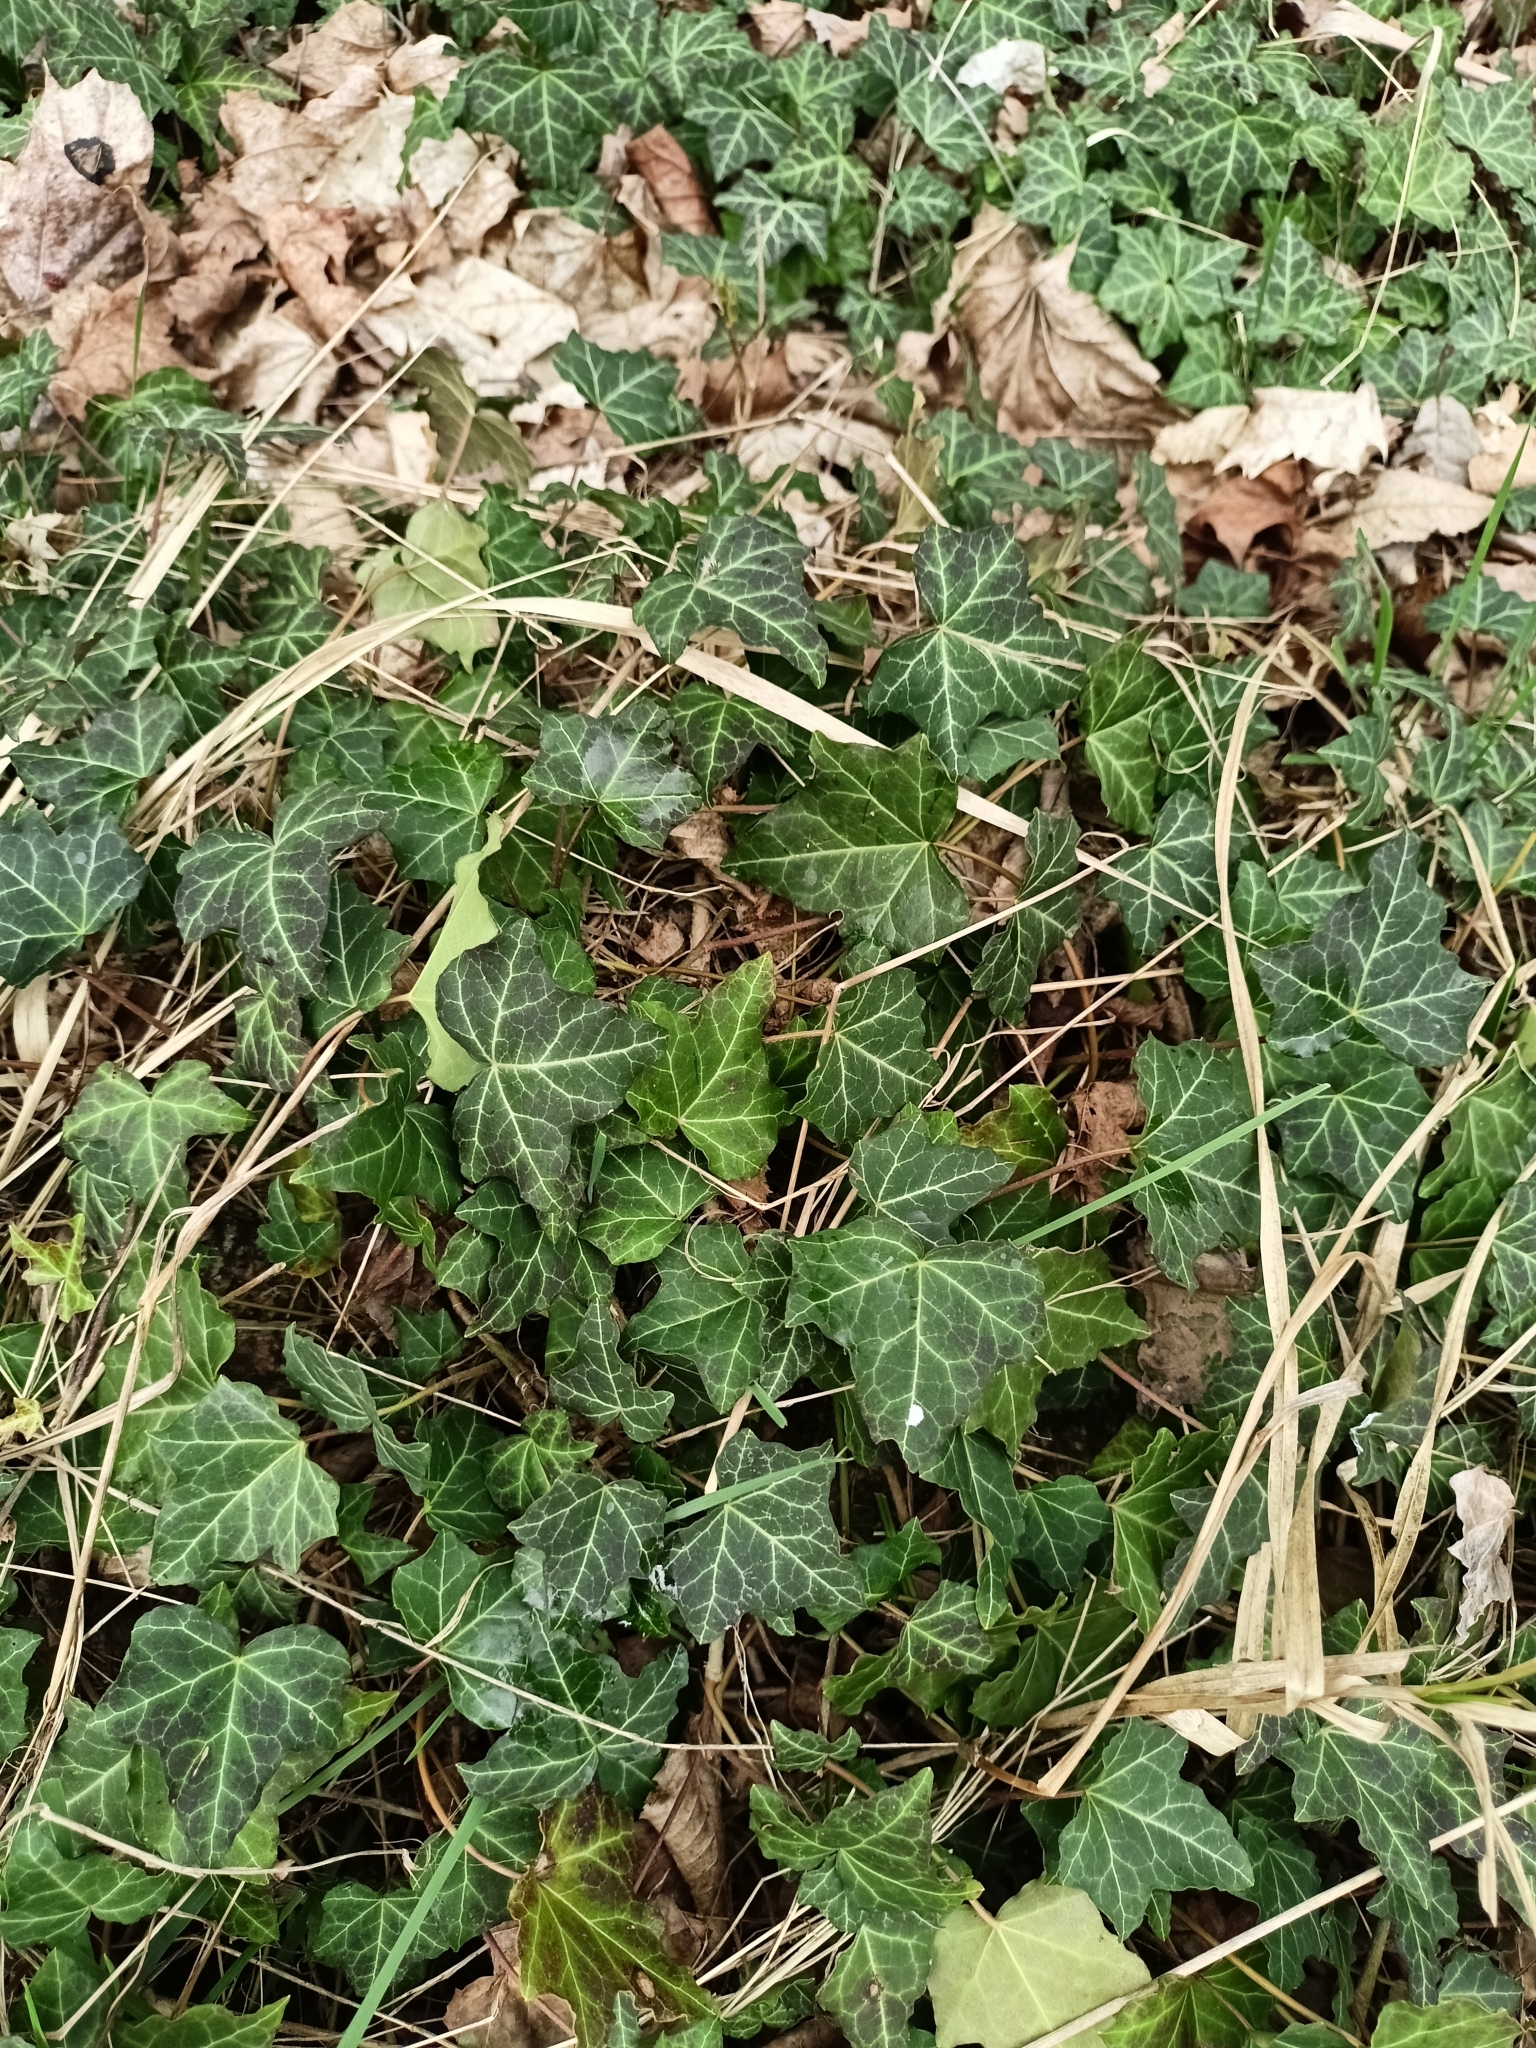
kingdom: Plantae
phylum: Tracheophyta
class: Magnoliopsida
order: Apiales
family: Araliaceae
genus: Hedera
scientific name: Hedera helix
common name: Ivy
